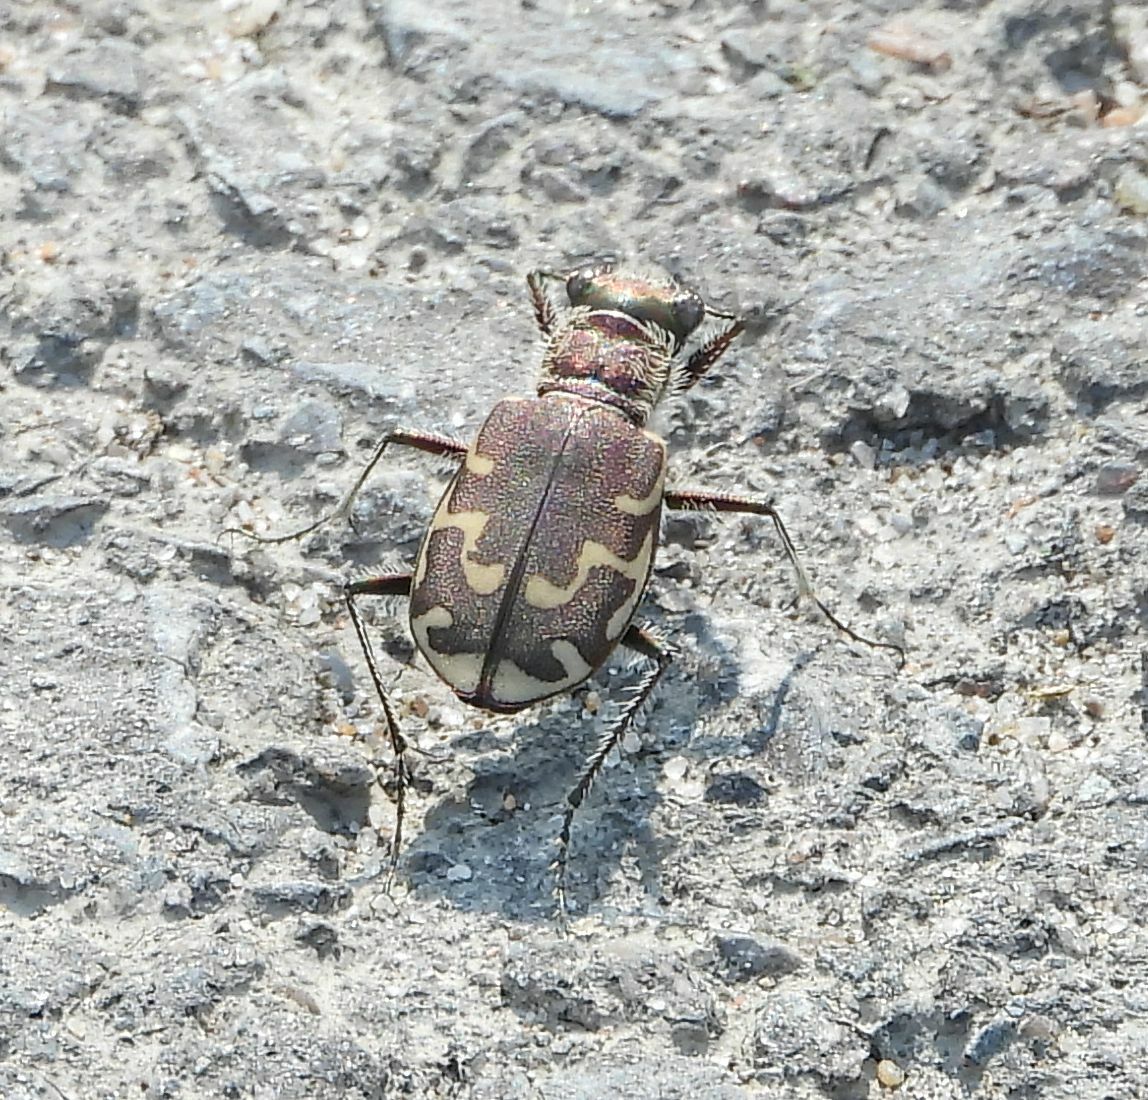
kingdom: Animalia
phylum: Arthropoda
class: Insecta
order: Coleoptera
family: Carabidae
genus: Cicindela
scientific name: Cicindela repanda
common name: Bronzed tiger beetle
